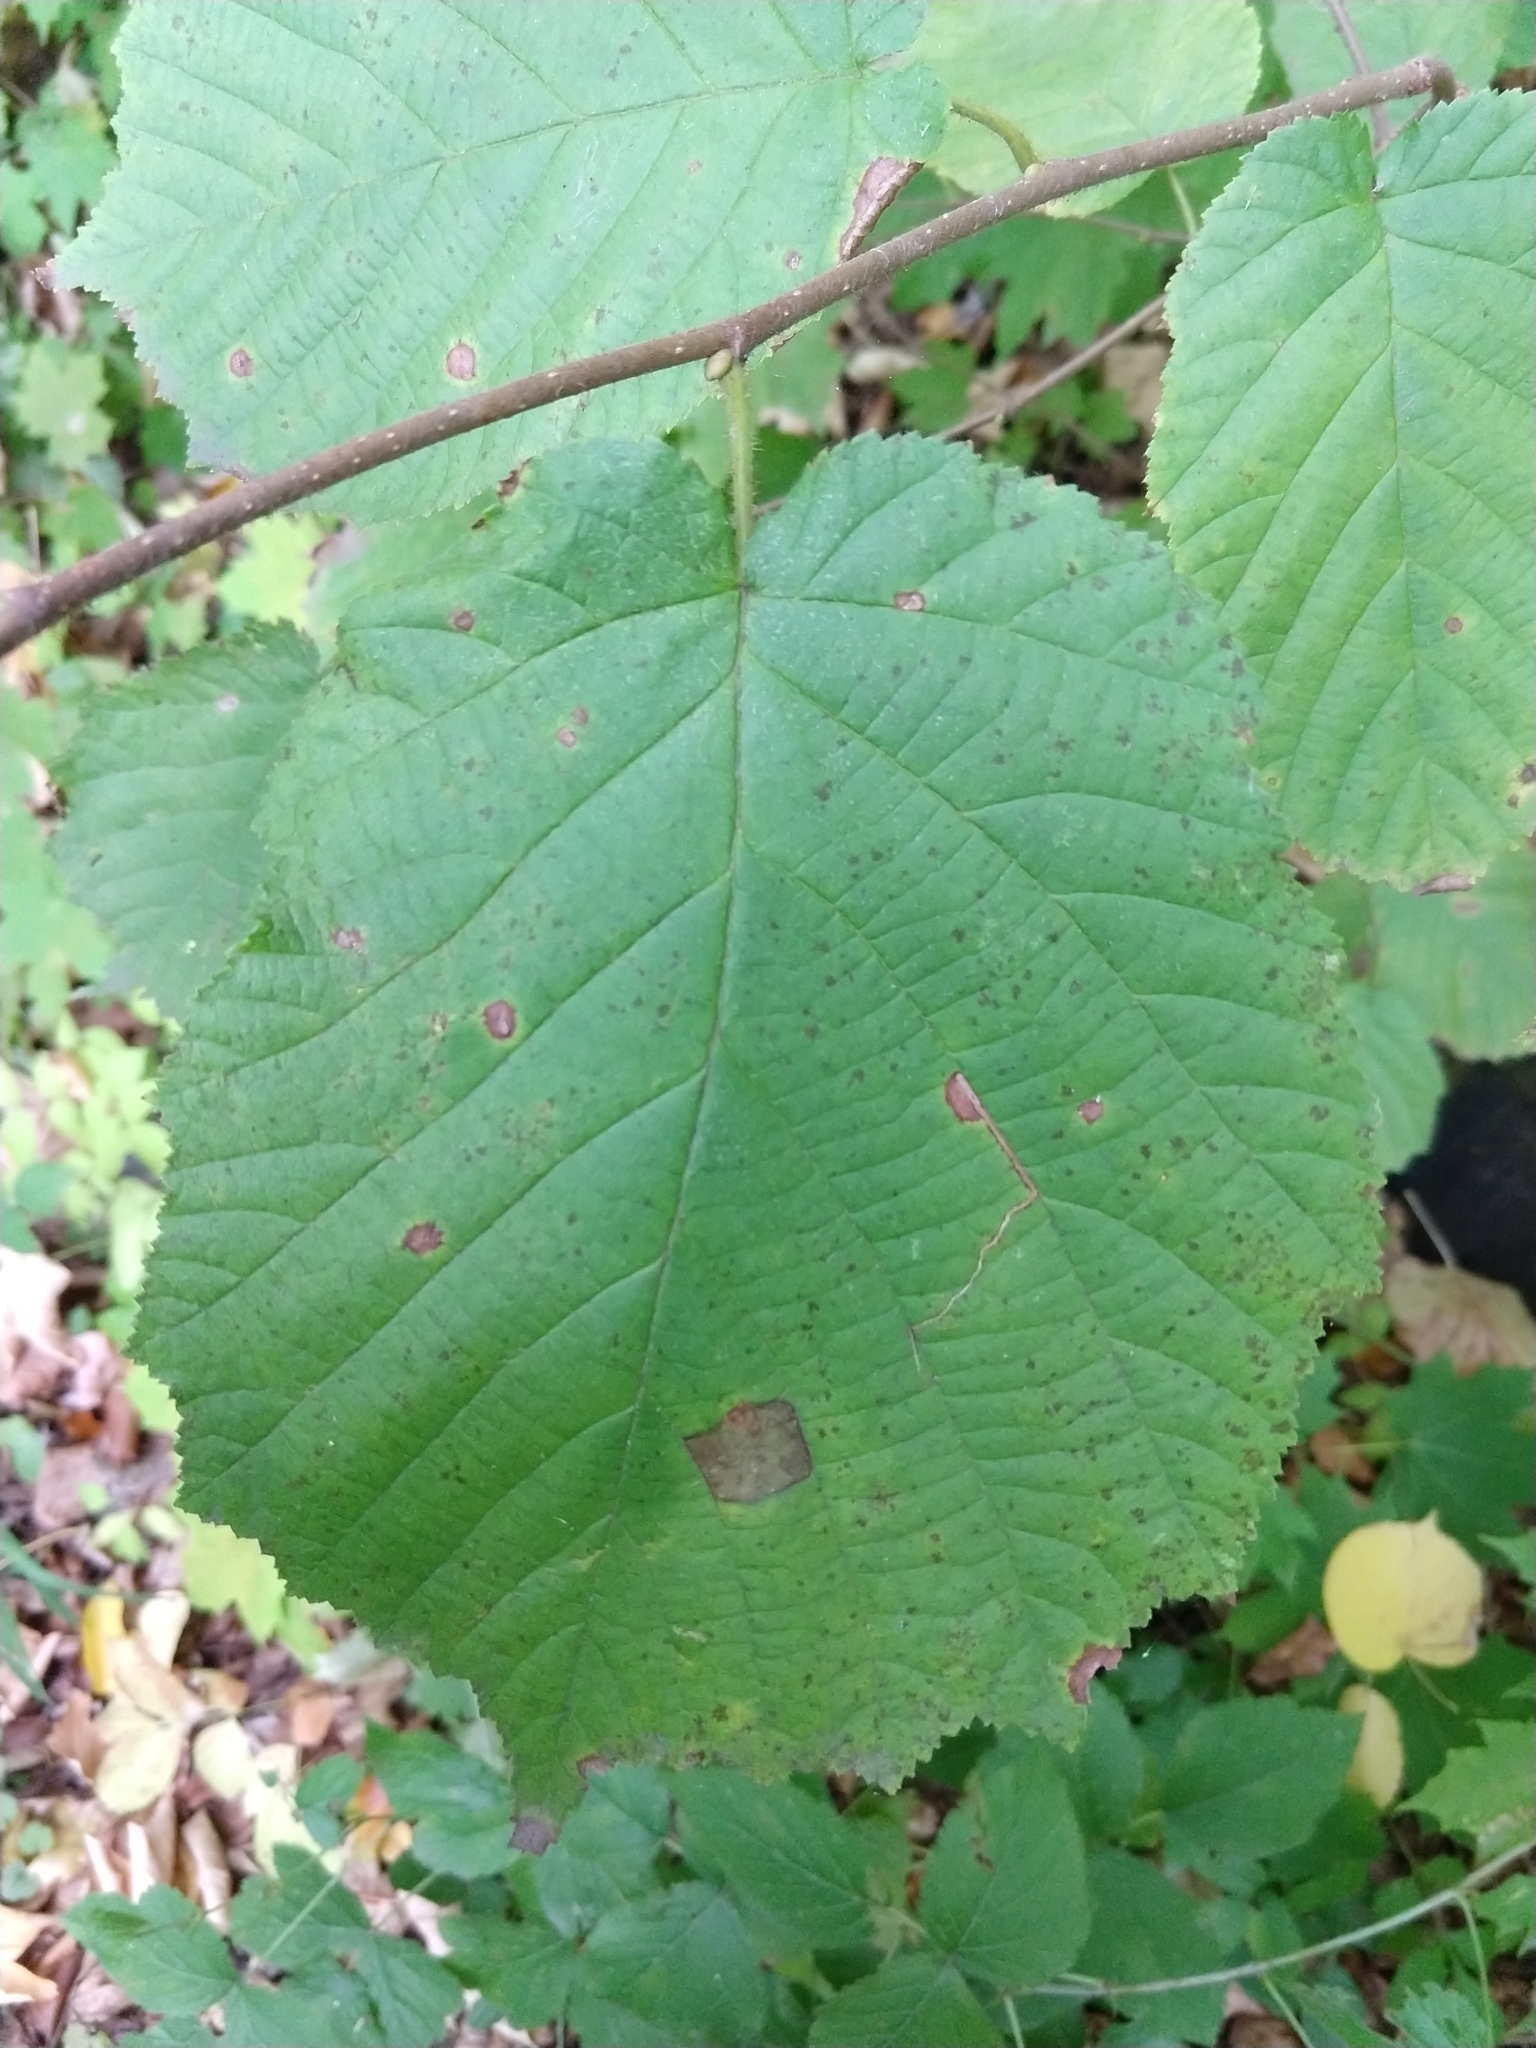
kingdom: Plantae
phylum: Tracheophyta
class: Magnoliopsida
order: Fagales
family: Betulaceae
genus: Corylus
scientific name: Corylus avellana
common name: European hazel
